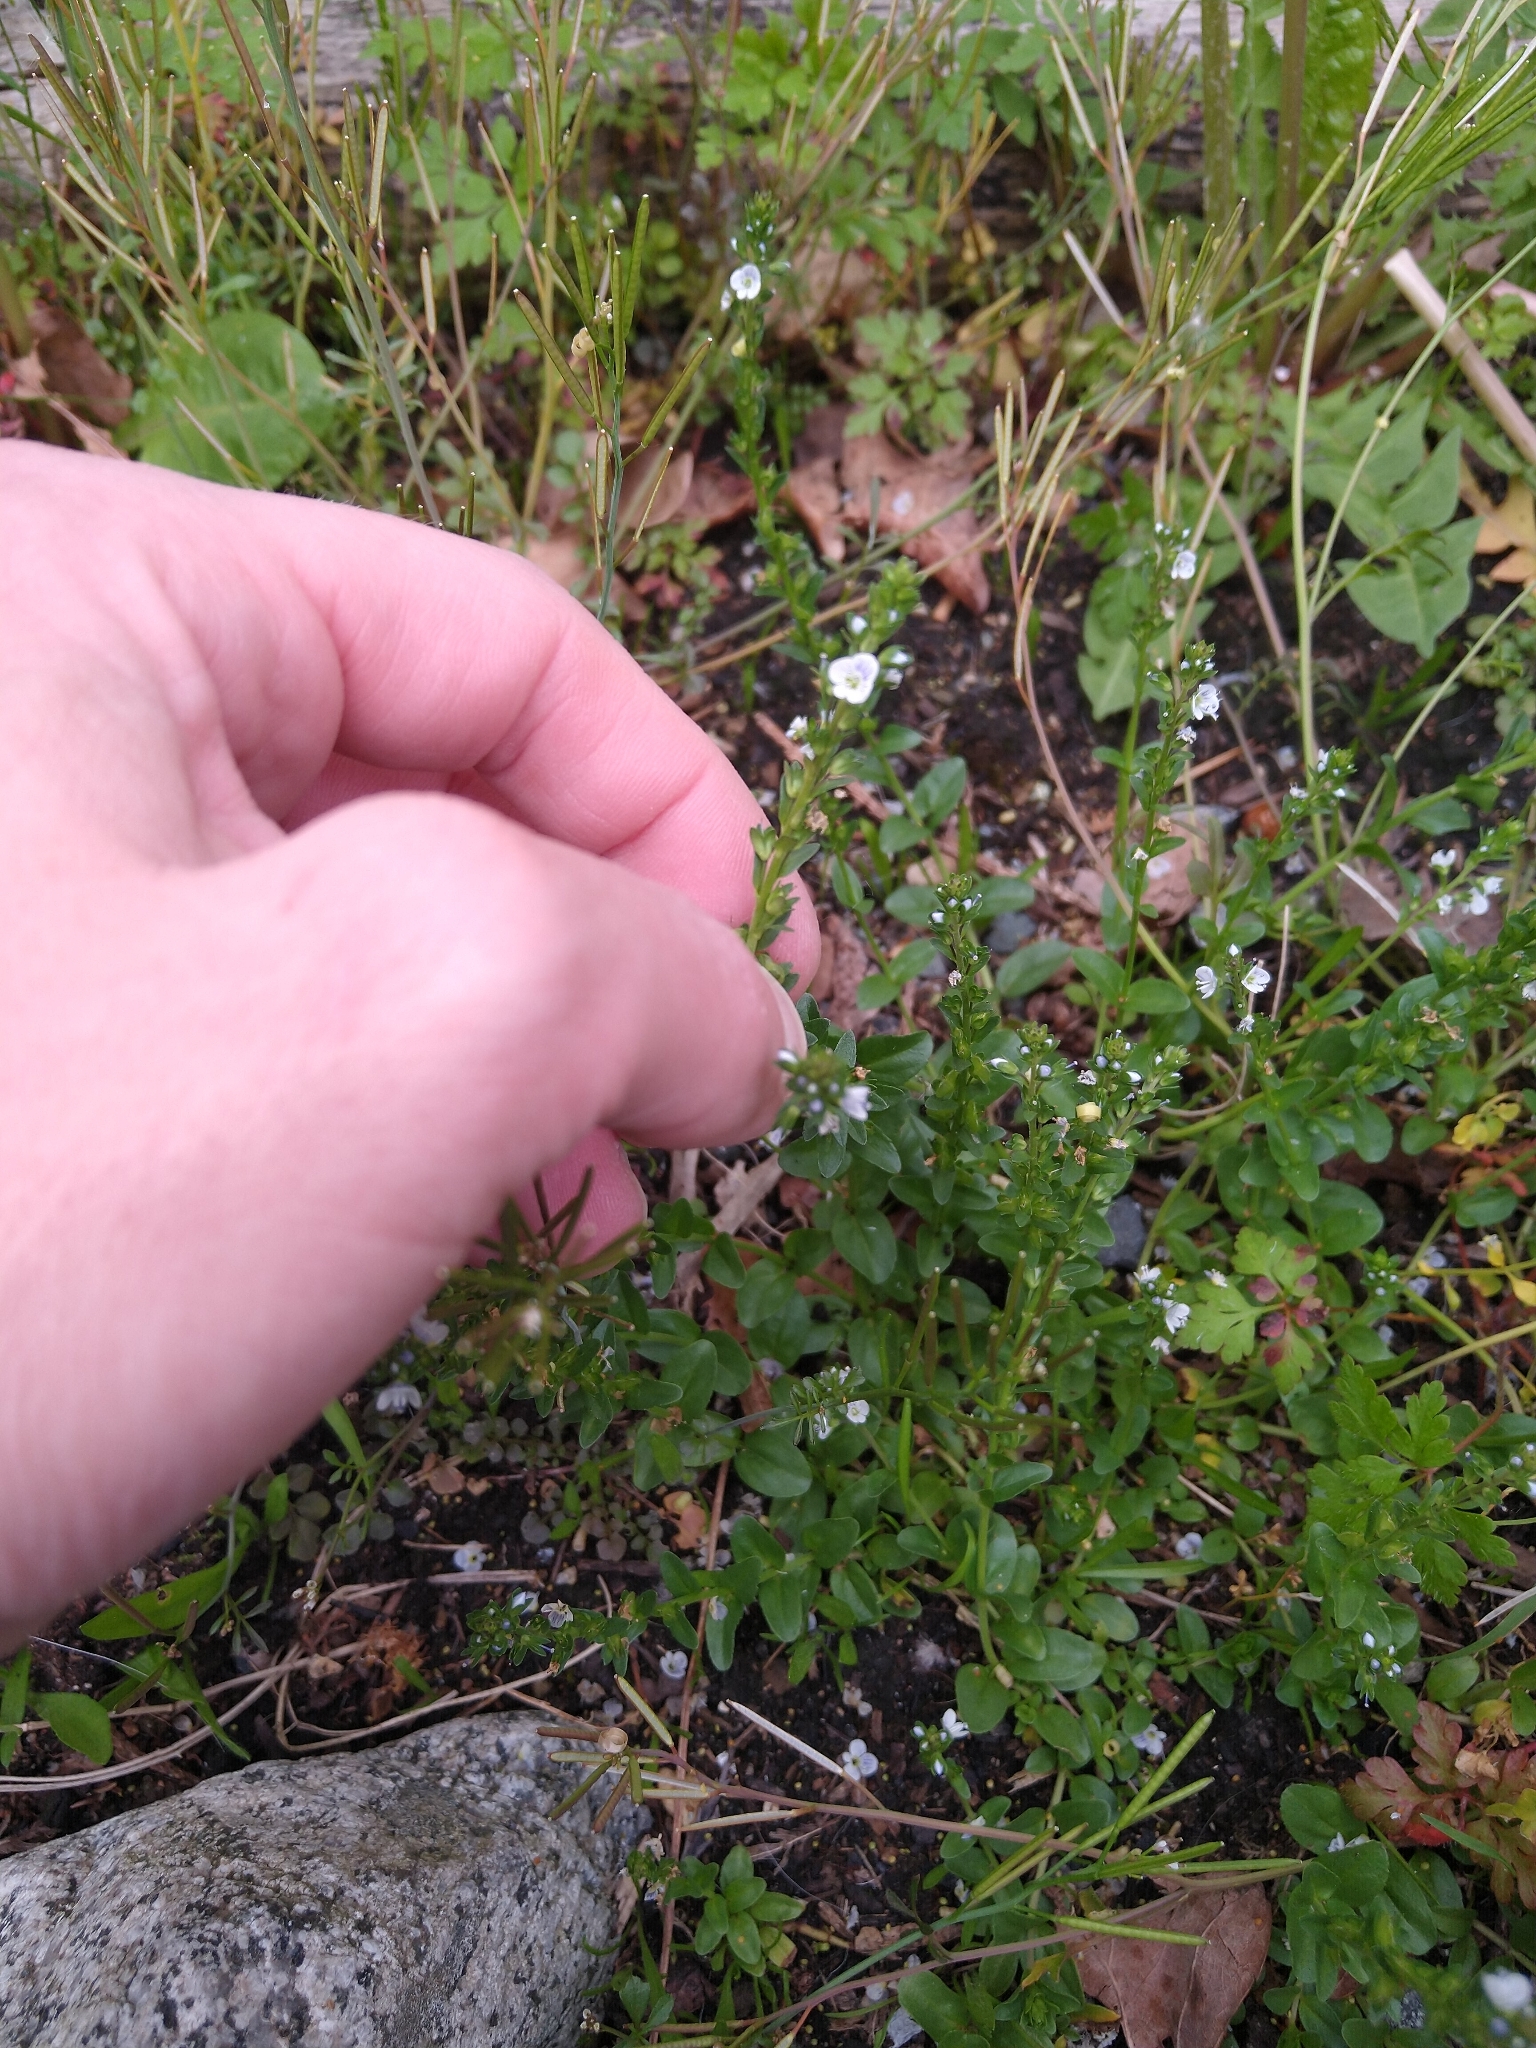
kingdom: Plantae
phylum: Tracheophyta
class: Magnoliopsida
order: Lamiales
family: Plantaginaceae
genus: Veronica
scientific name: Veronica serpyllifolia
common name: Thyme-leaved speedwell
